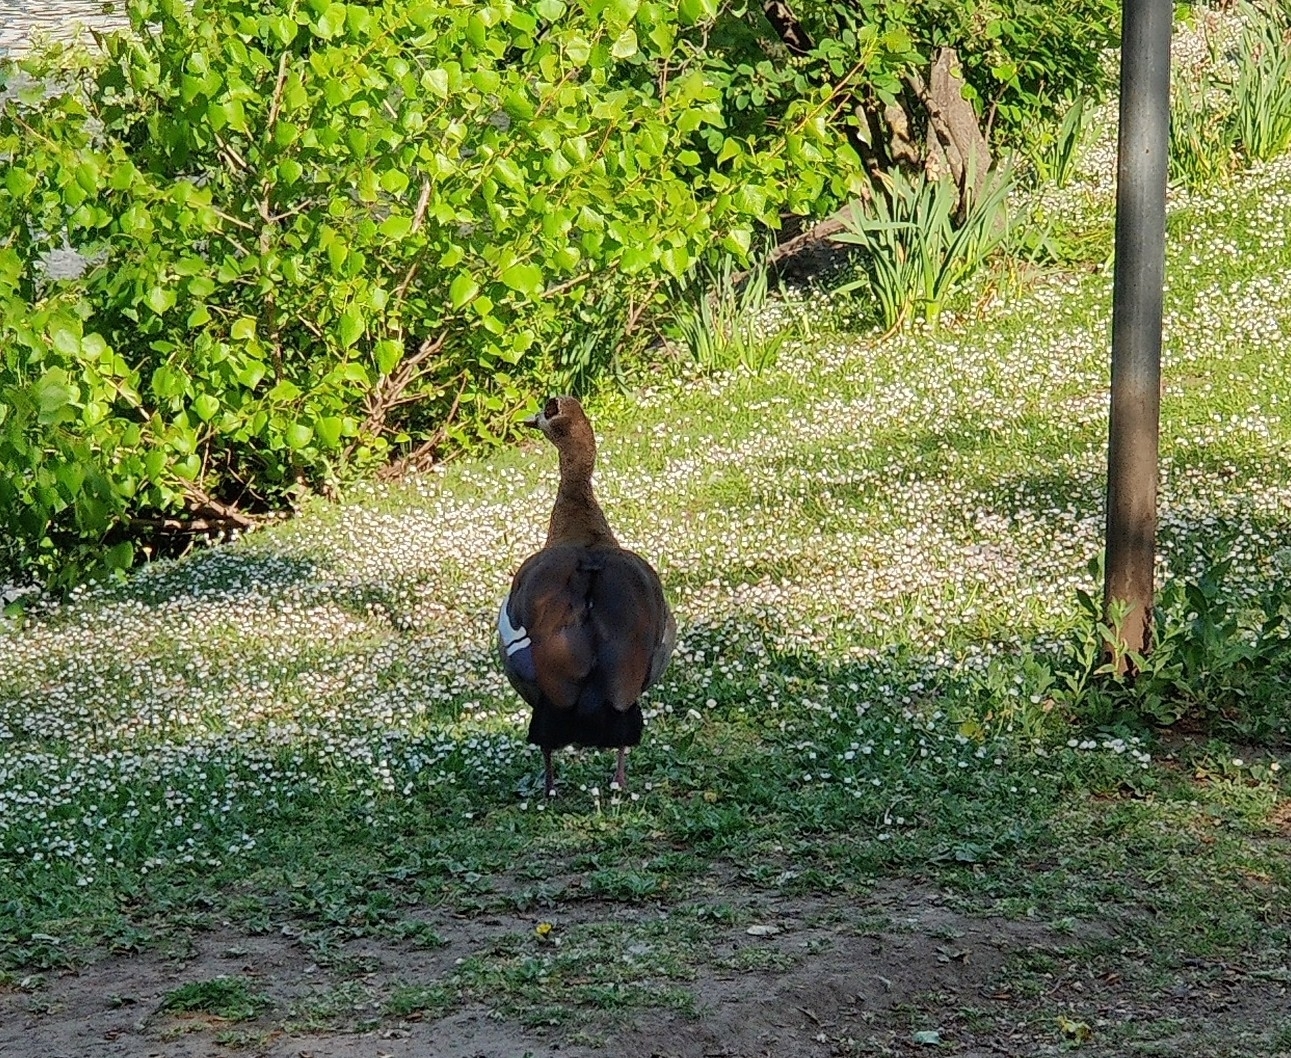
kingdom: Animalia
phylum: Chordata
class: Aves
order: Anseriformes
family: Anatidae
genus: Alopochen
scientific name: Alopochen aegyptiaca
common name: Egyptian goose
